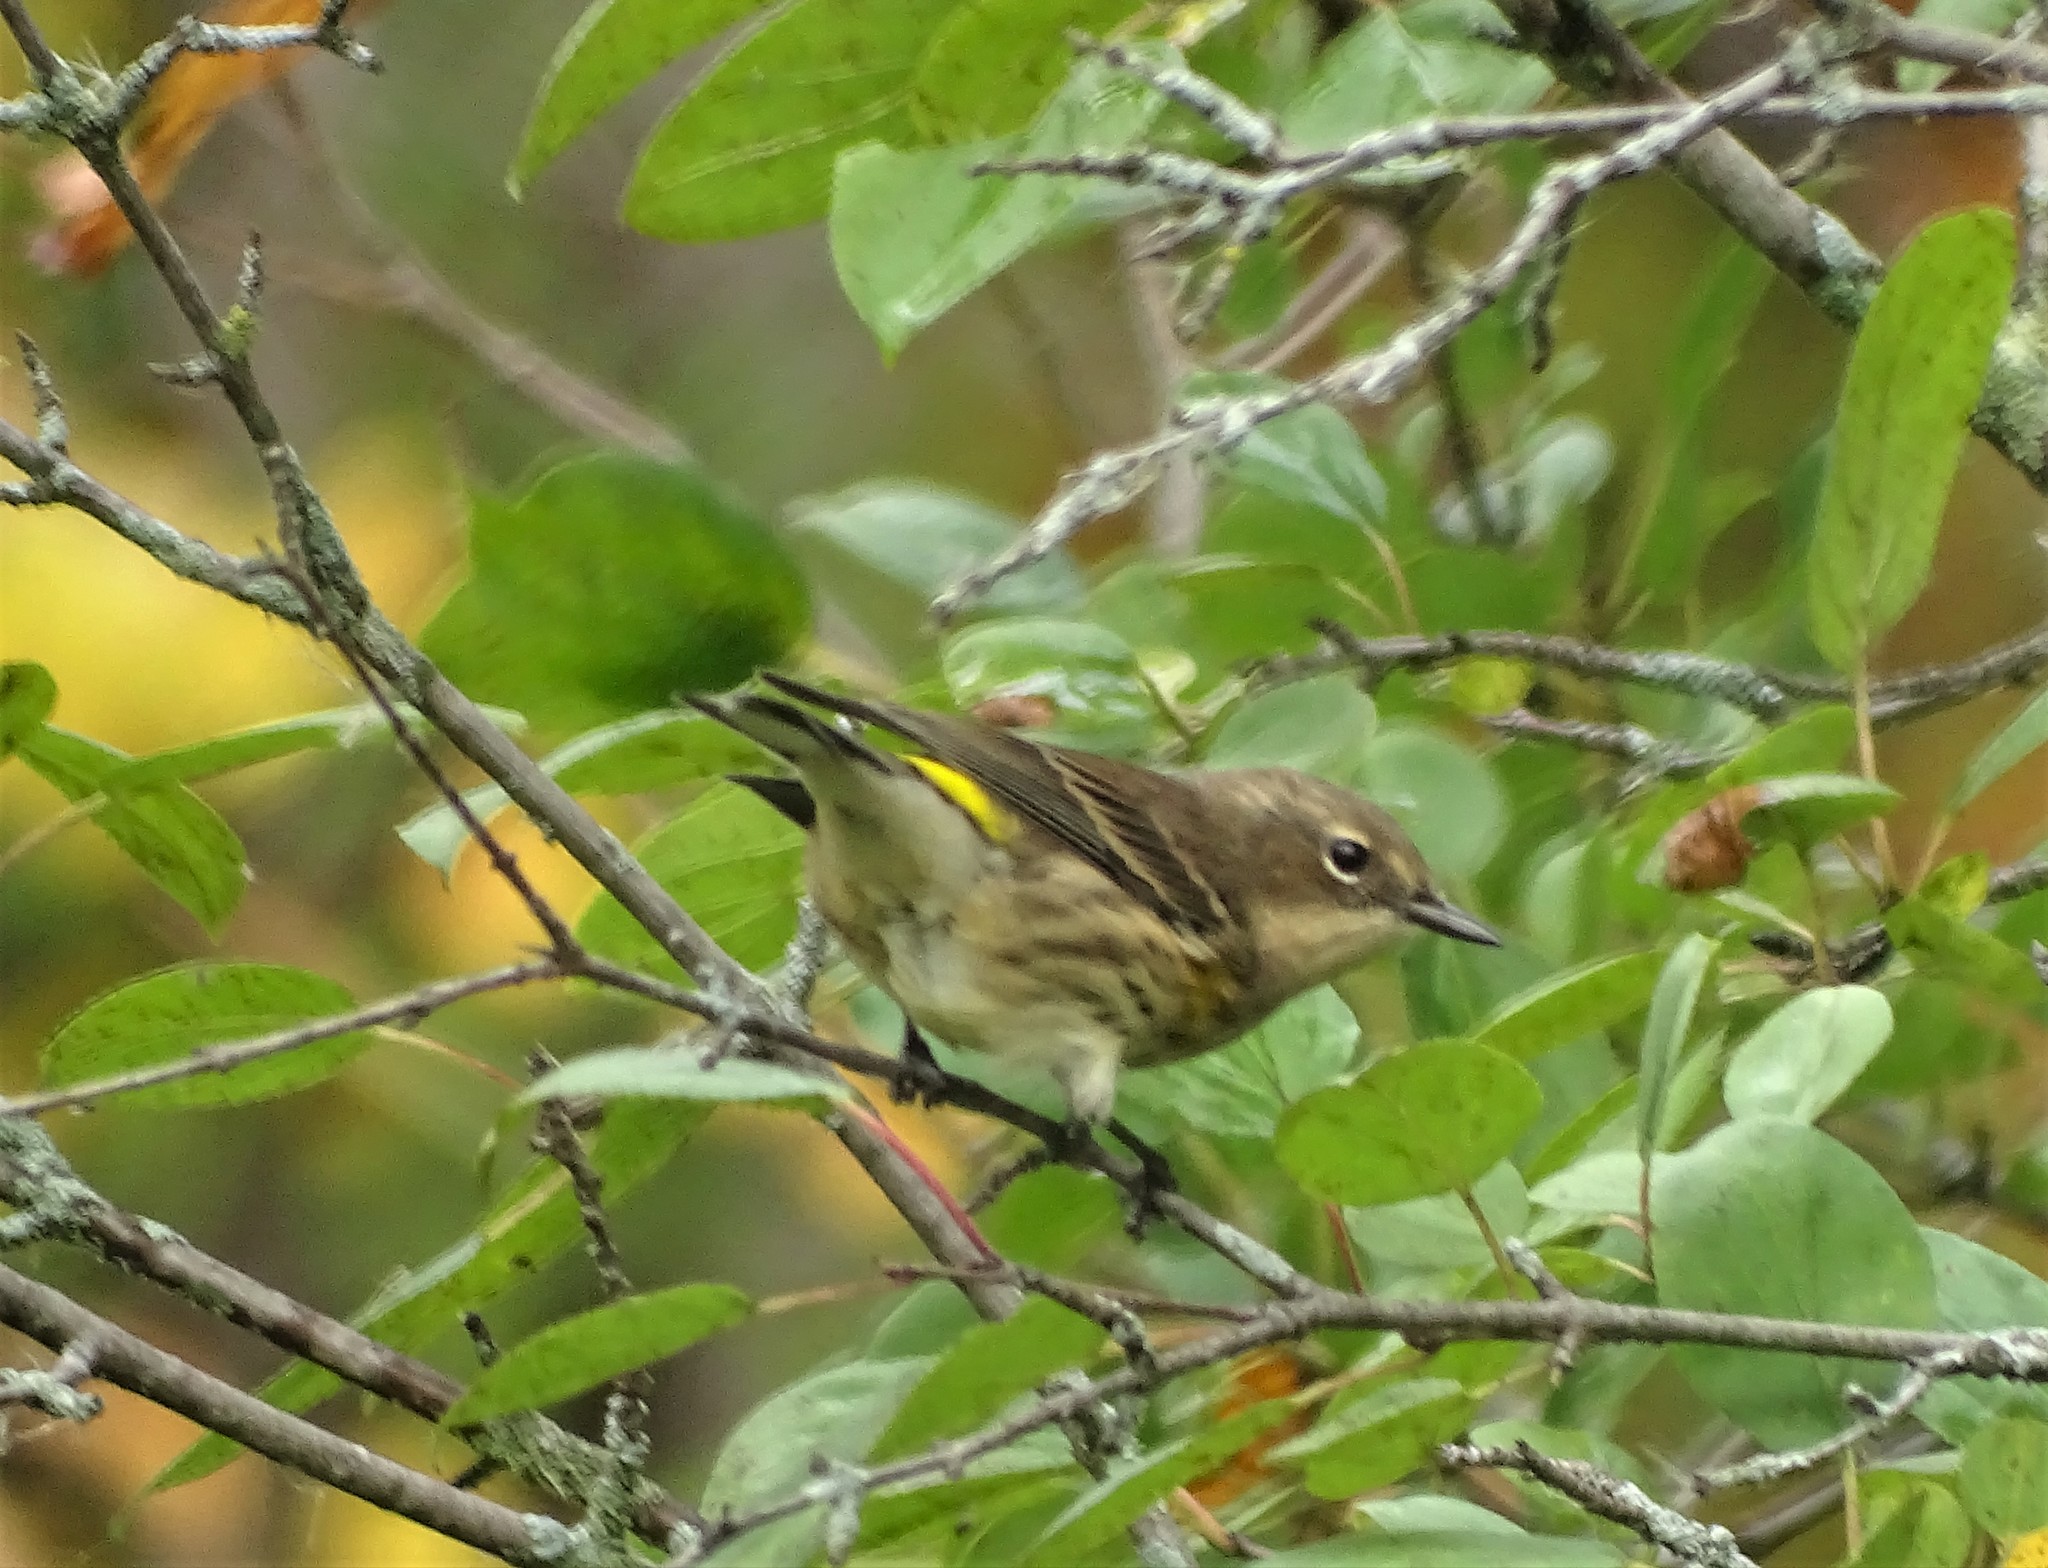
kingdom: Animalia
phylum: Chordata
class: Aves
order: Passeriformes
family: Parulidae
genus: Setophaga
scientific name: Setophaga coronata
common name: Myrtle warbler
